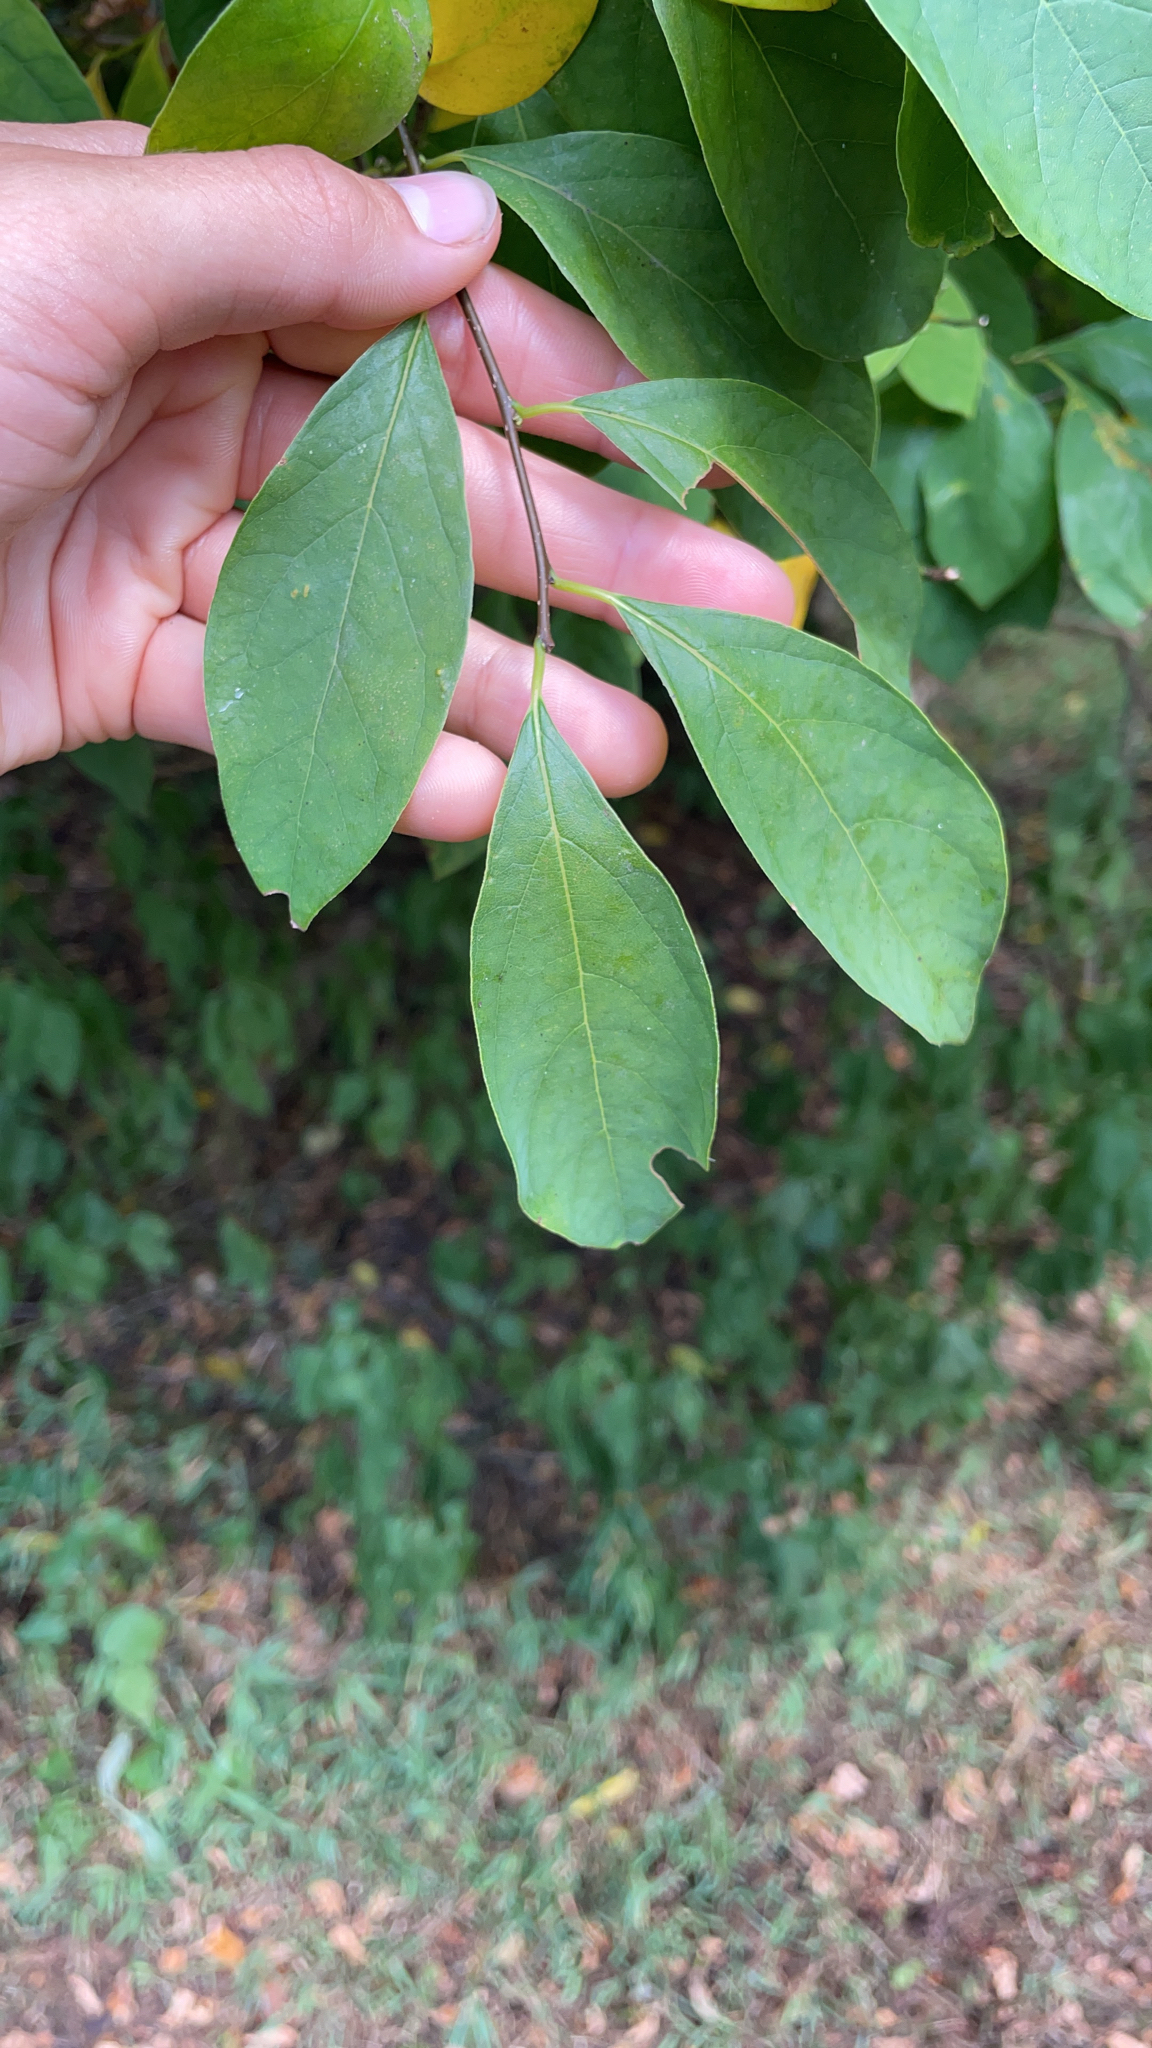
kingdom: Plantae
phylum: Tracheophyta
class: Magnoliopsida
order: Laurales
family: Lauraceae
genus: Lindera
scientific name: Lindera benzoin
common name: Spicebush
